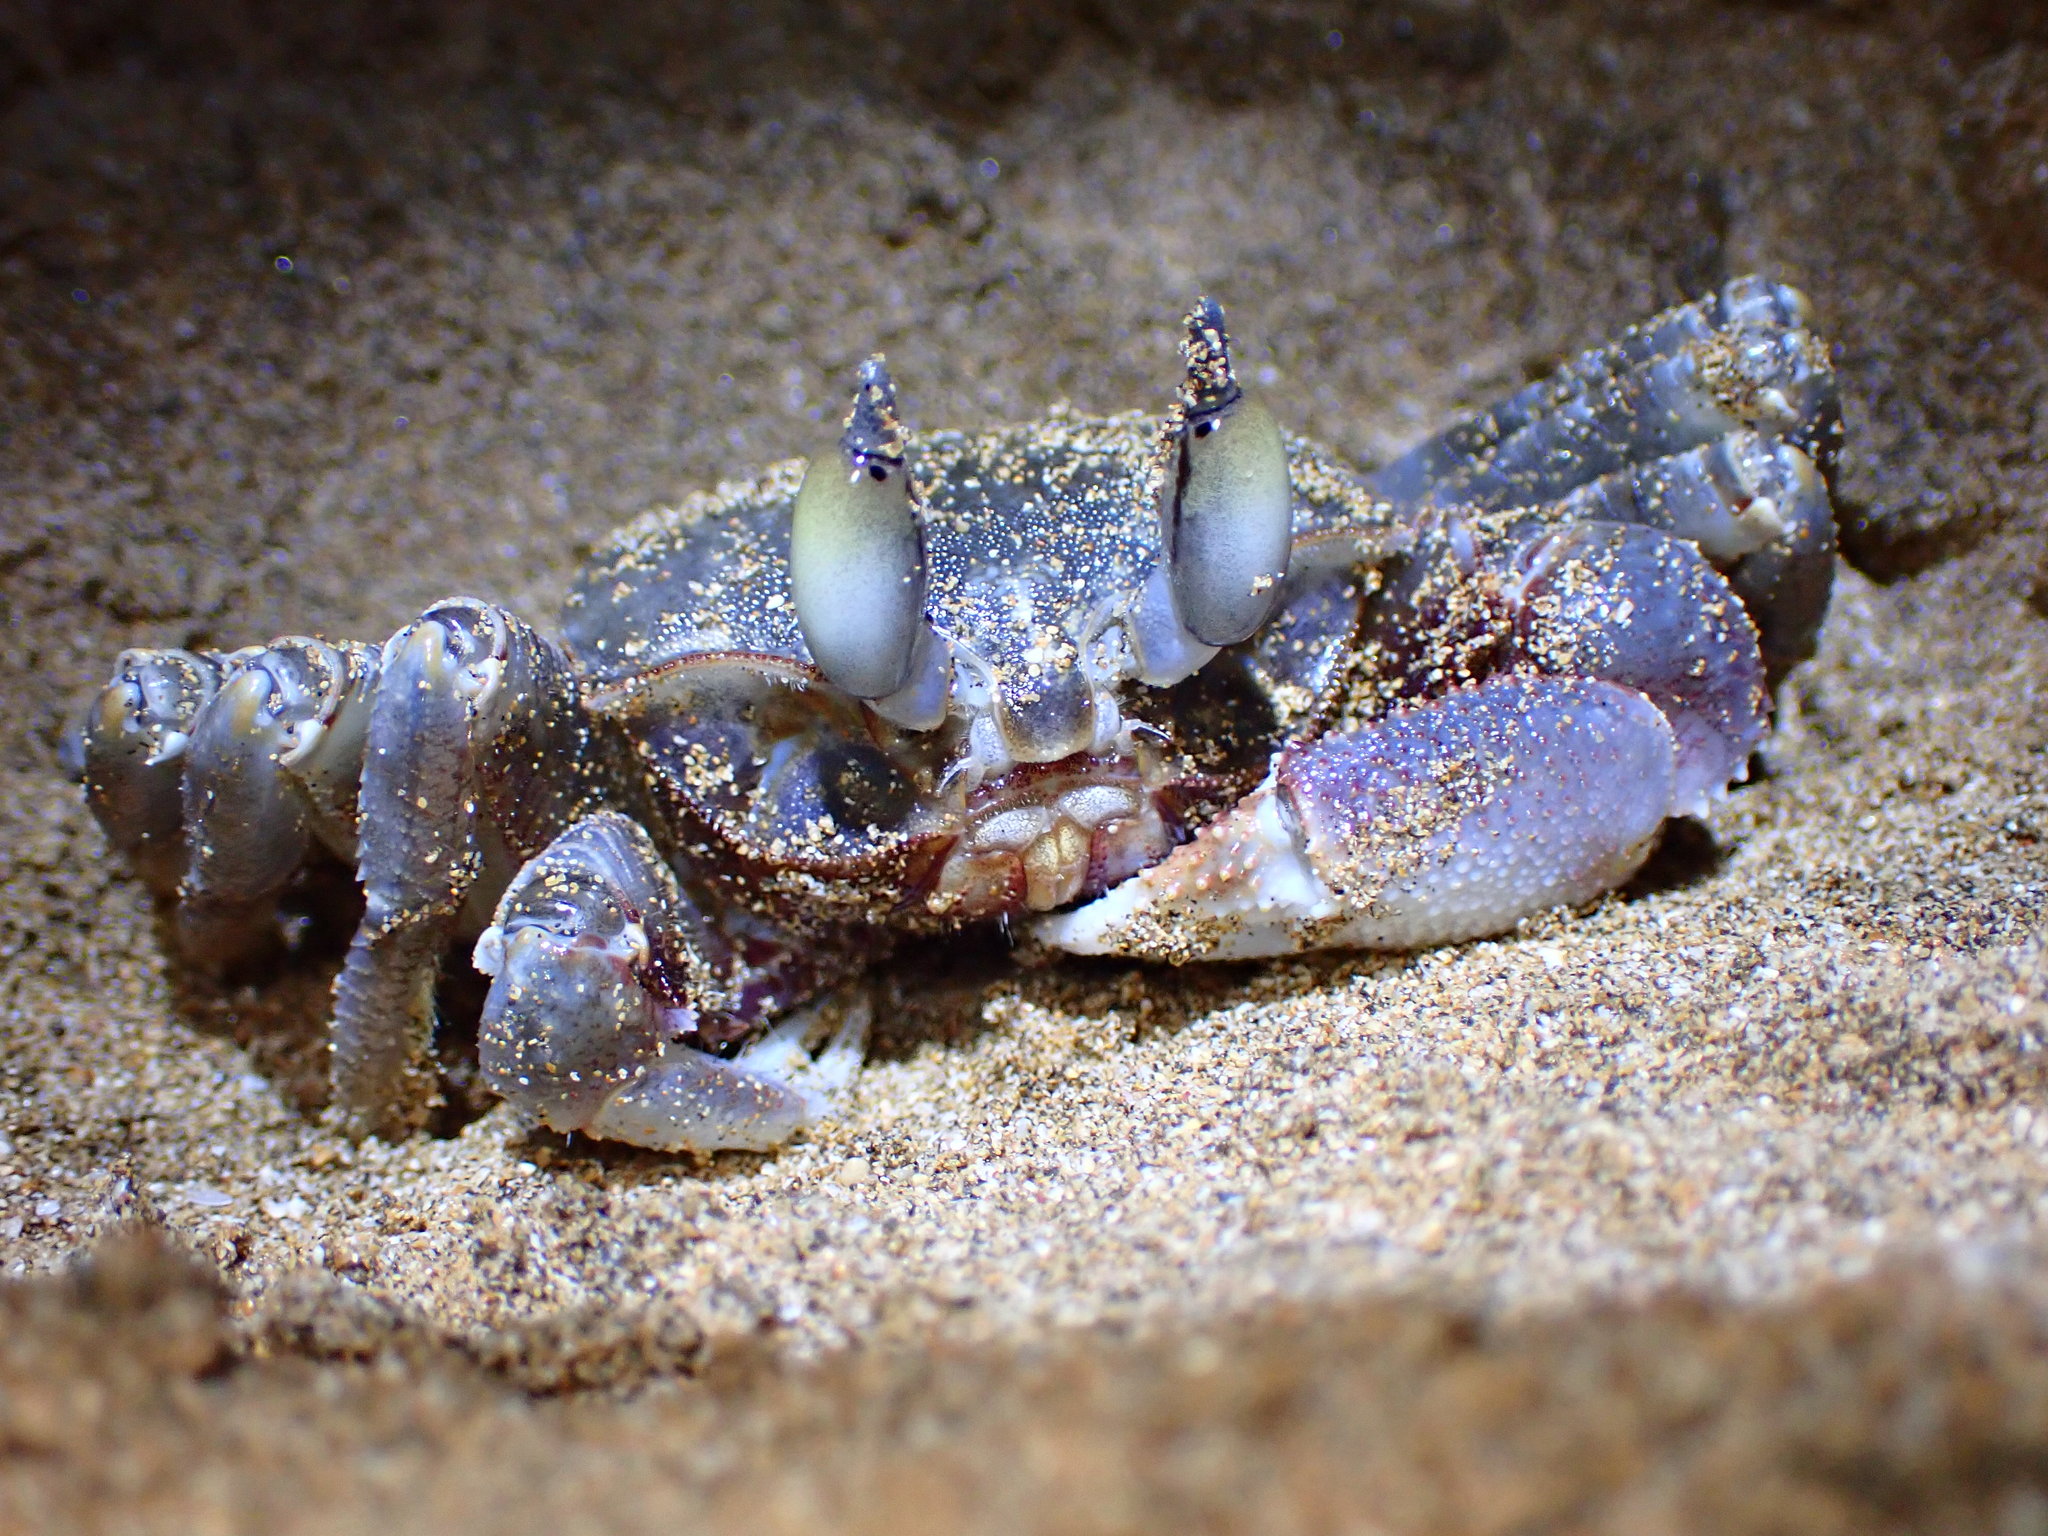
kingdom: Animalia
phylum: Arthropoda
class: Malacostraca
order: Decapoda
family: Ocypodidae
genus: Ocypode
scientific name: Ocypode ceratophthalmus
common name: Indo-pacific ghost crab
